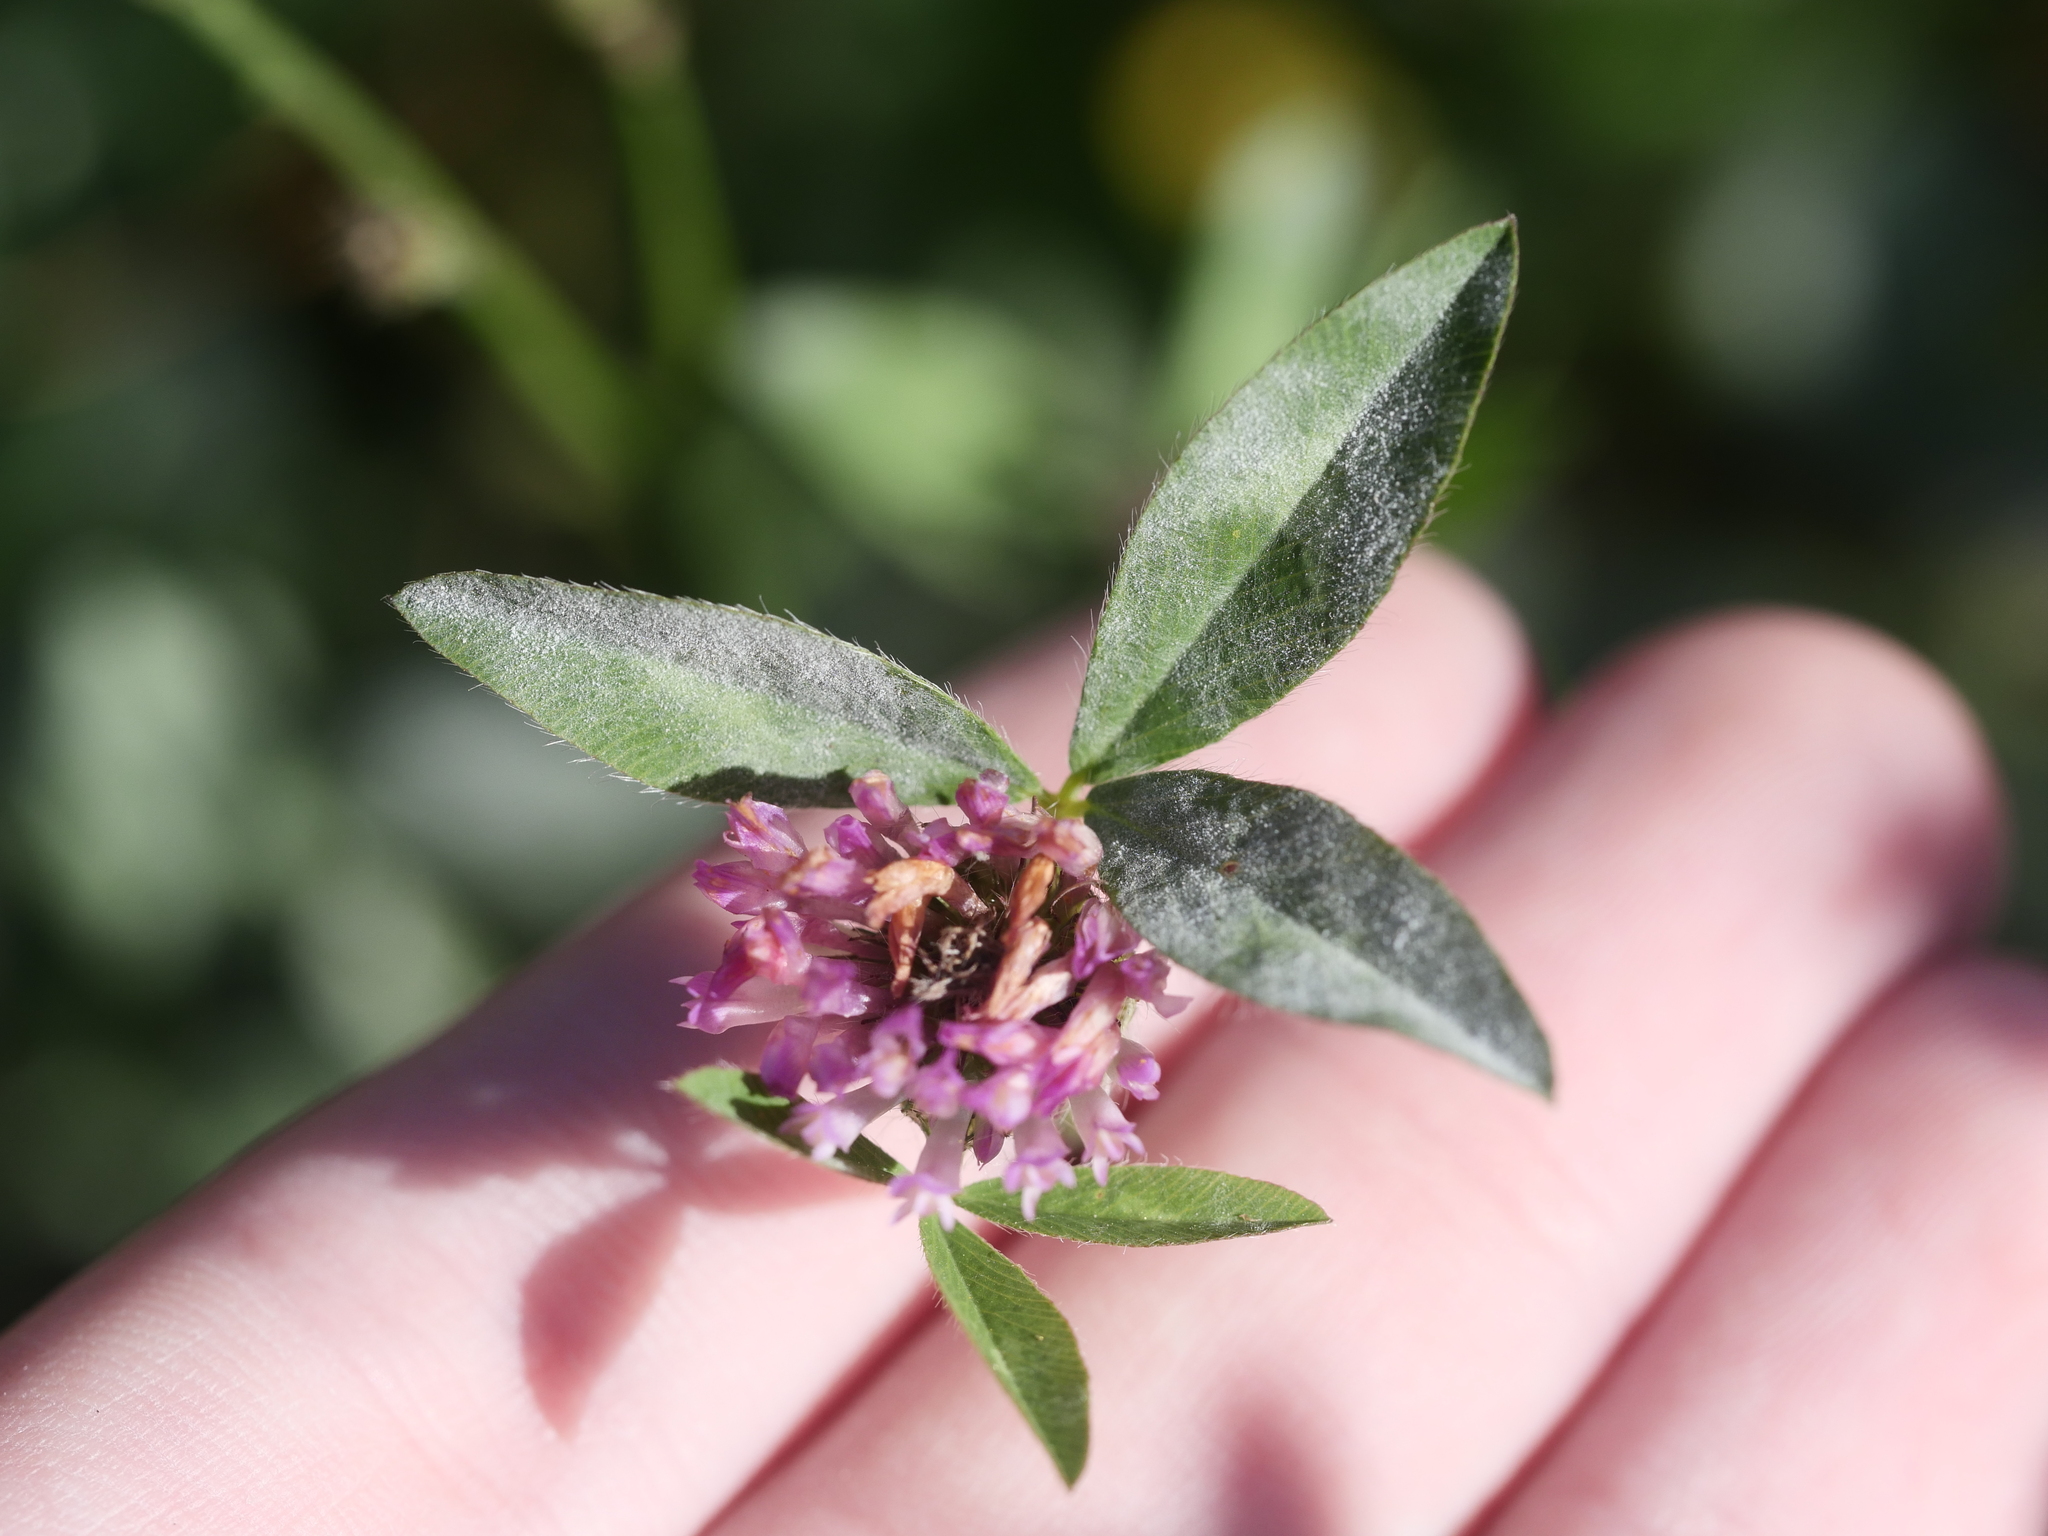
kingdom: Plantae
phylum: Tracheophyta
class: Magnoliopsida
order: Fabales
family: Fabaceae
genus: Trifolium
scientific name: Trifolium pratense
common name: Red clover
